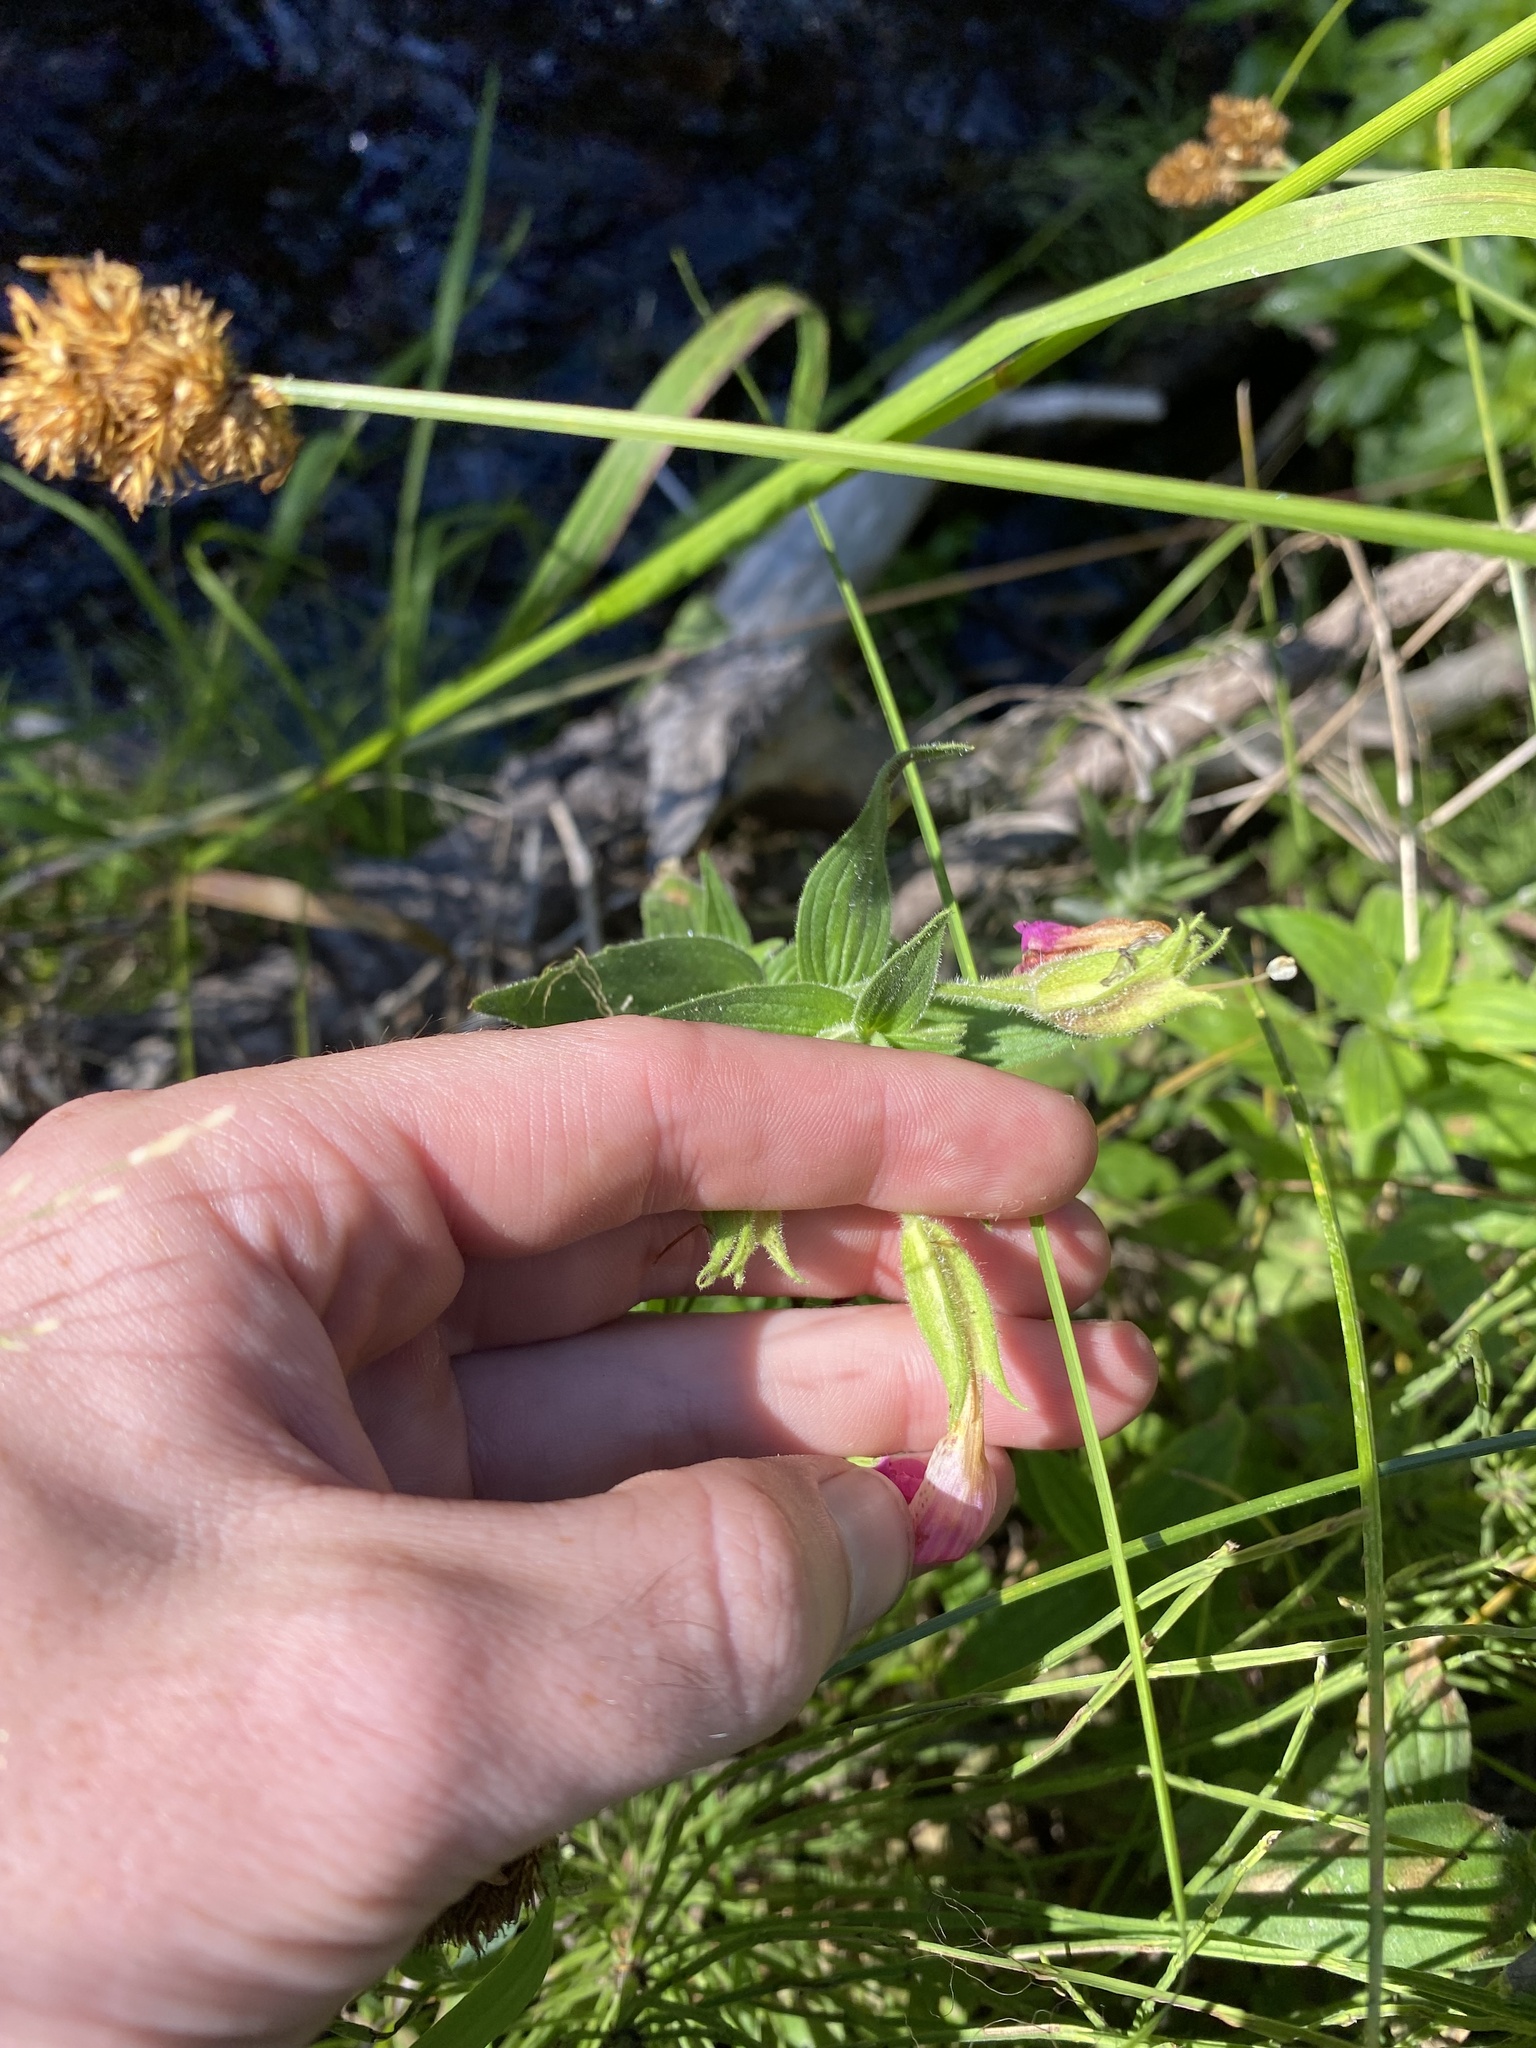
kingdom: Plantae
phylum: Tracheophyta
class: Magnoliopsida
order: Lamiales
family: Phrymaceae
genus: Erythranthe
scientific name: Erythranthe lewisii
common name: Lewis's monkey-flower
